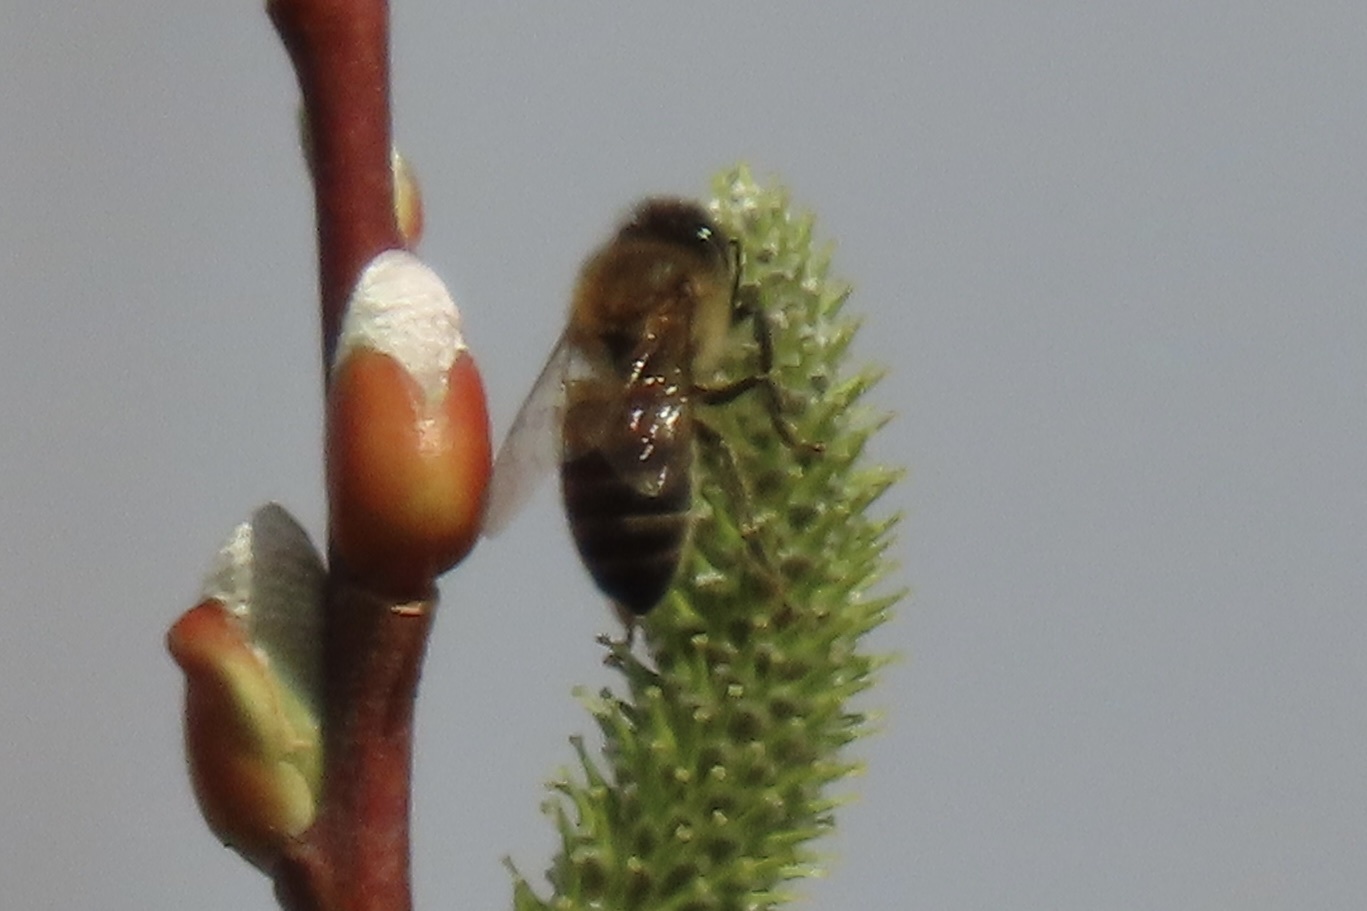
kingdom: Animalia
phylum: Arthropoda
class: Insecta
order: Hymenoptera
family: Apidae
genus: Apis
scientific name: Apis mellifera
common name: Honey bee
